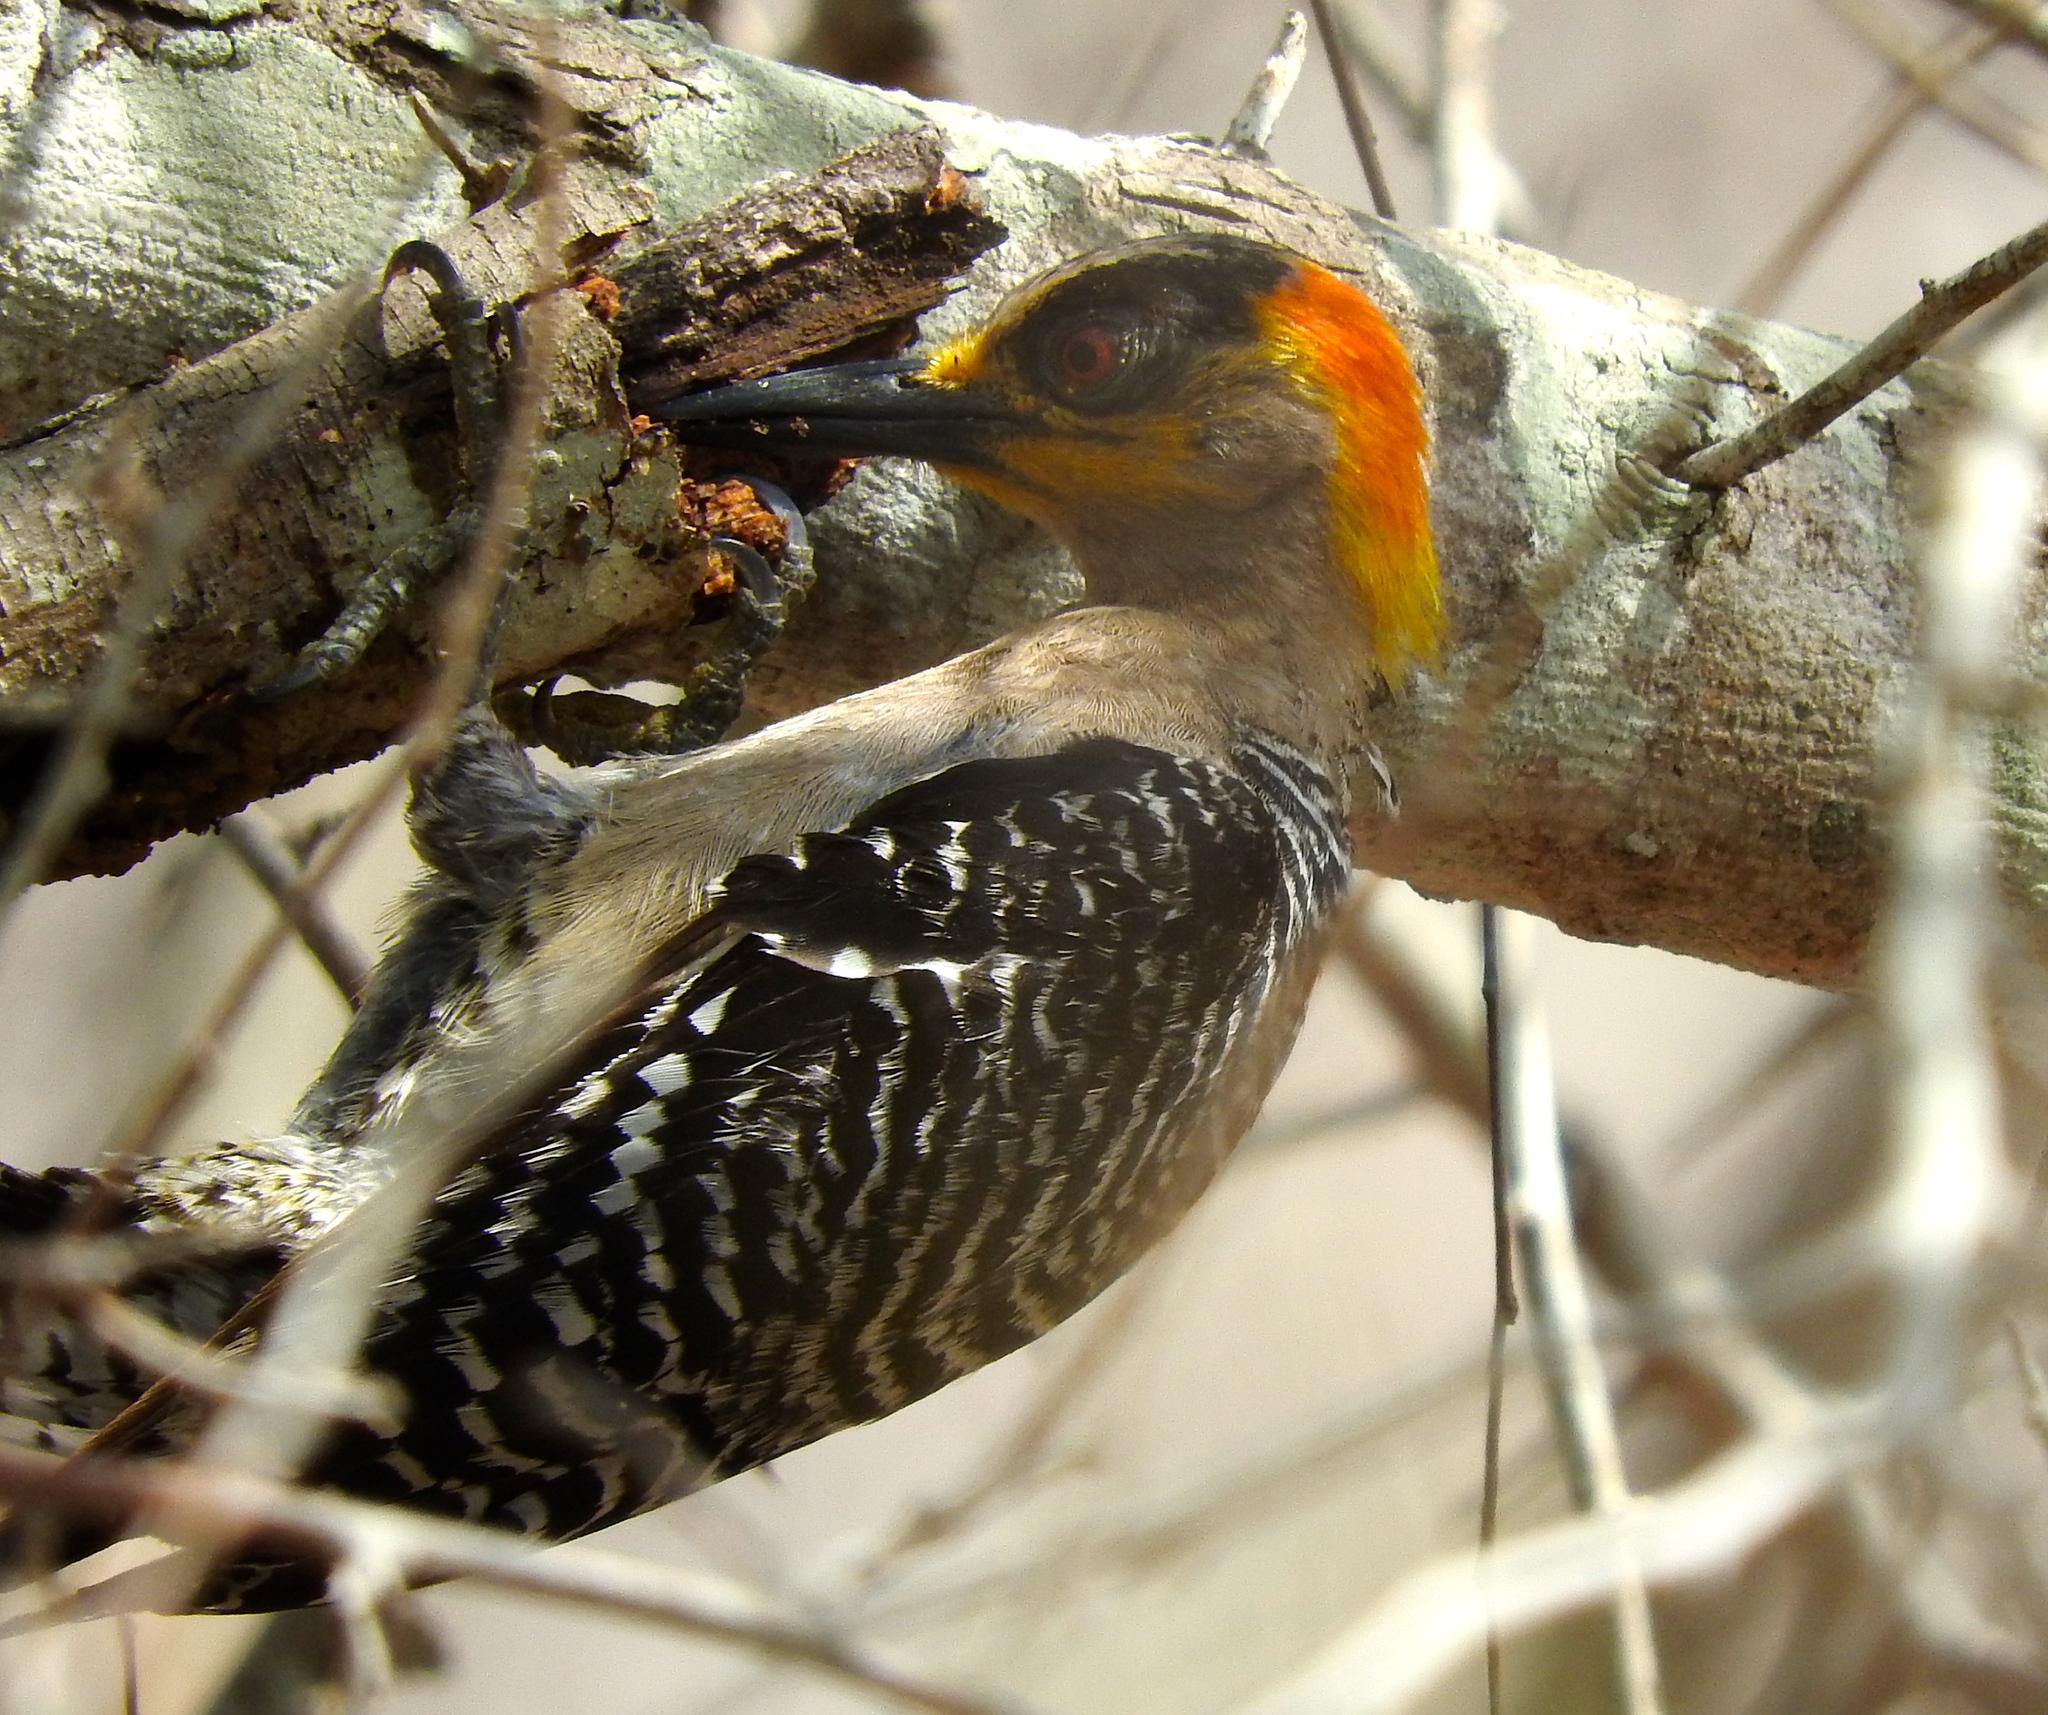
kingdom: Animalia
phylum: Chordata
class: Aves
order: Piciformes
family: Picidae
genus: Melanerpes
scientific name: Melanerpes chrysogenys
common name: Golden-cheeked woodpecker
